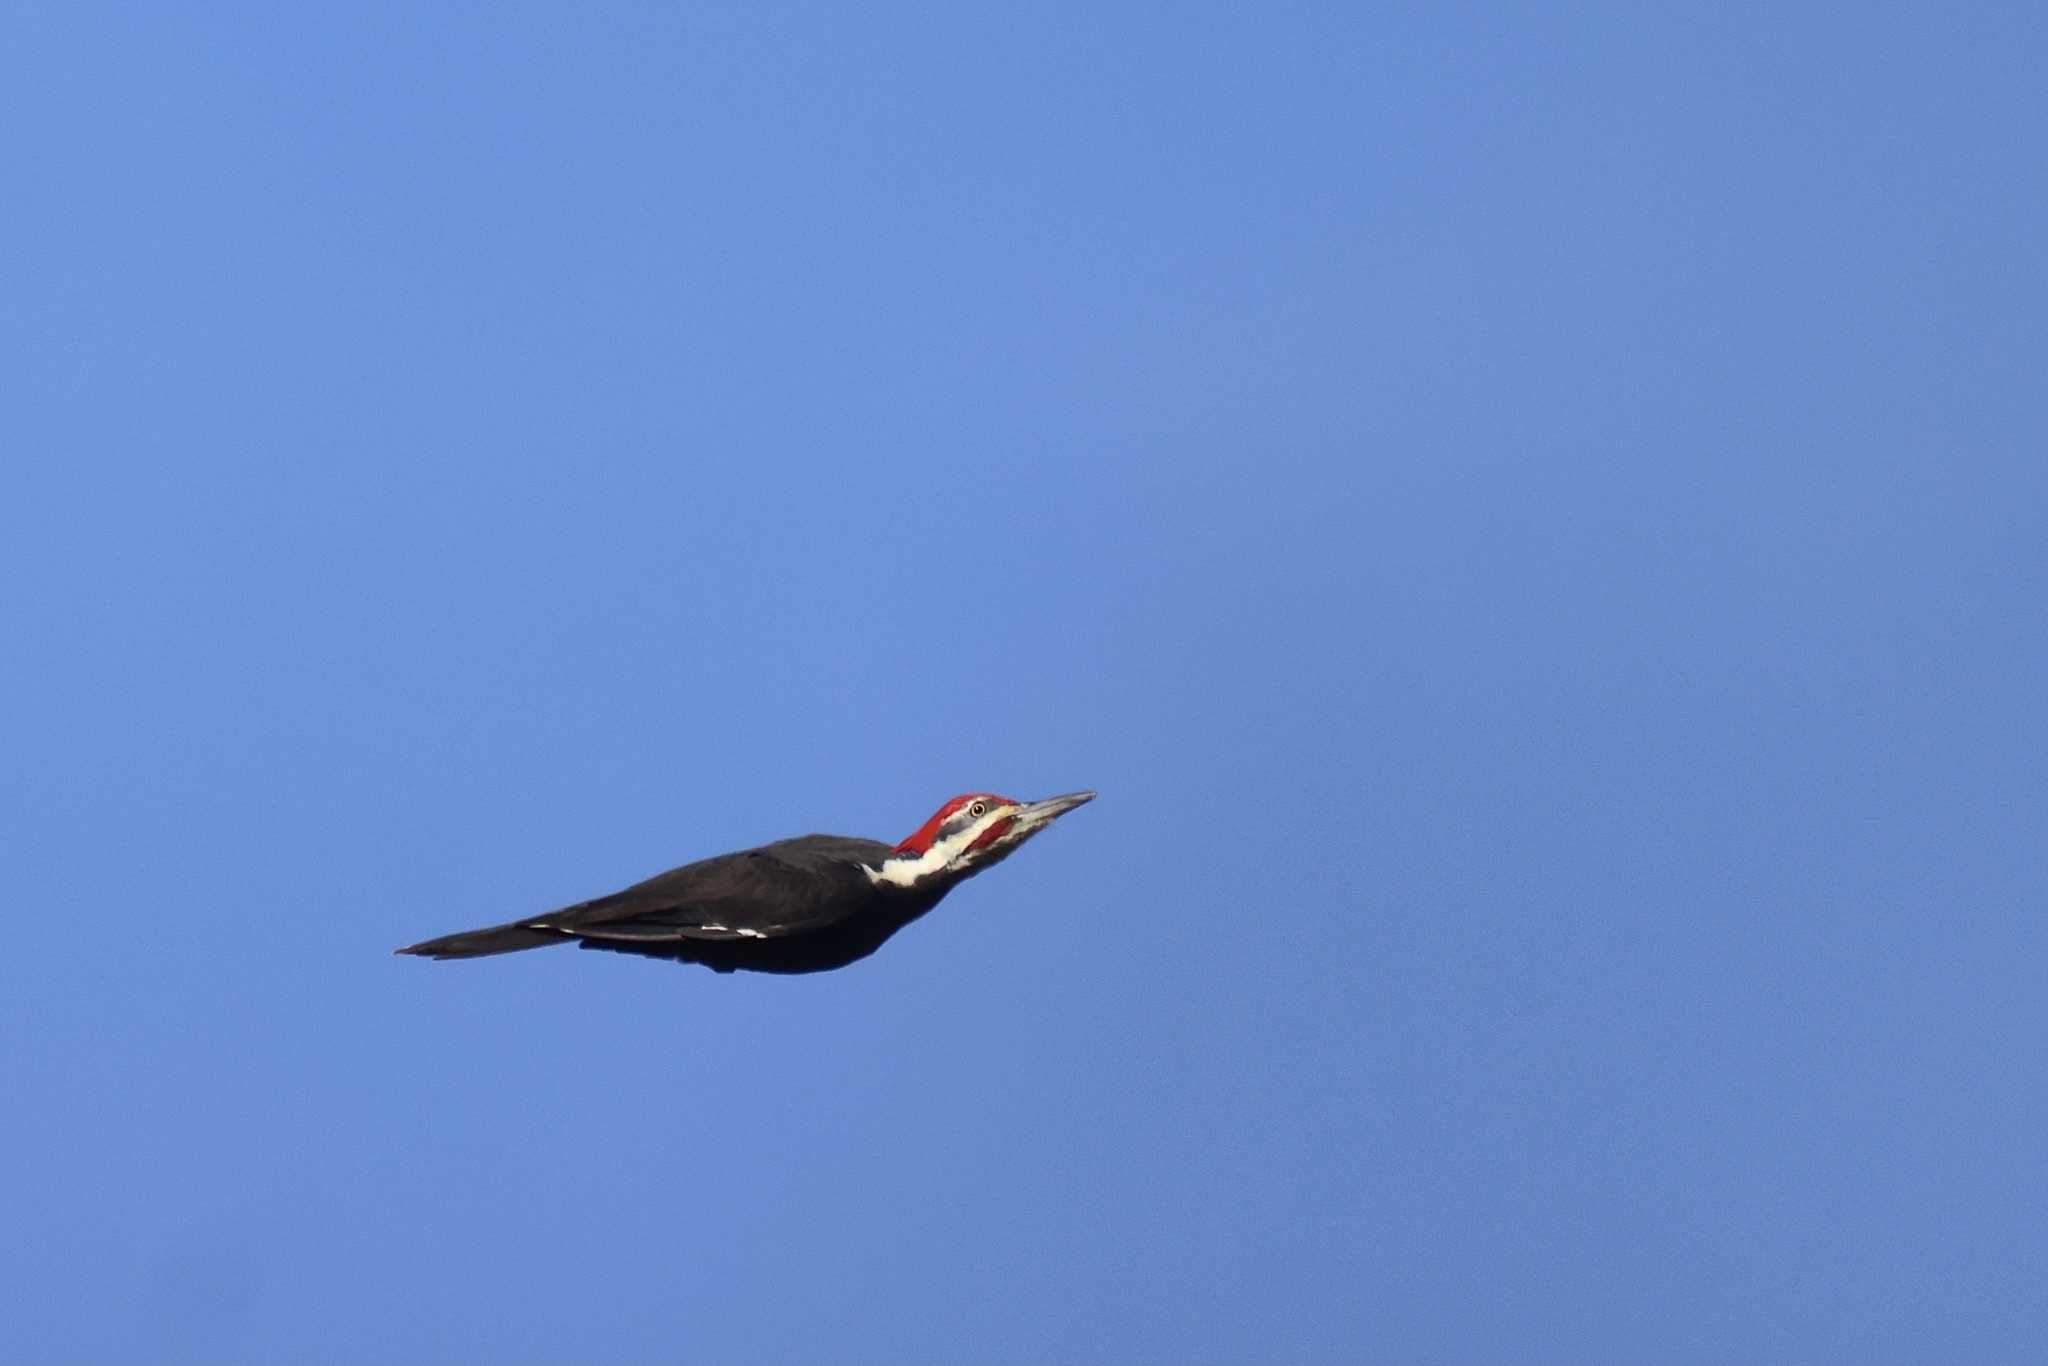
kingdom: Animalia
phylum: Chordata
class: Aves
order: Piciformes
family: Picidae
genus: Dryocopus
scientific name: Dryocopus pileatus
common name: Pileated woodpecker
